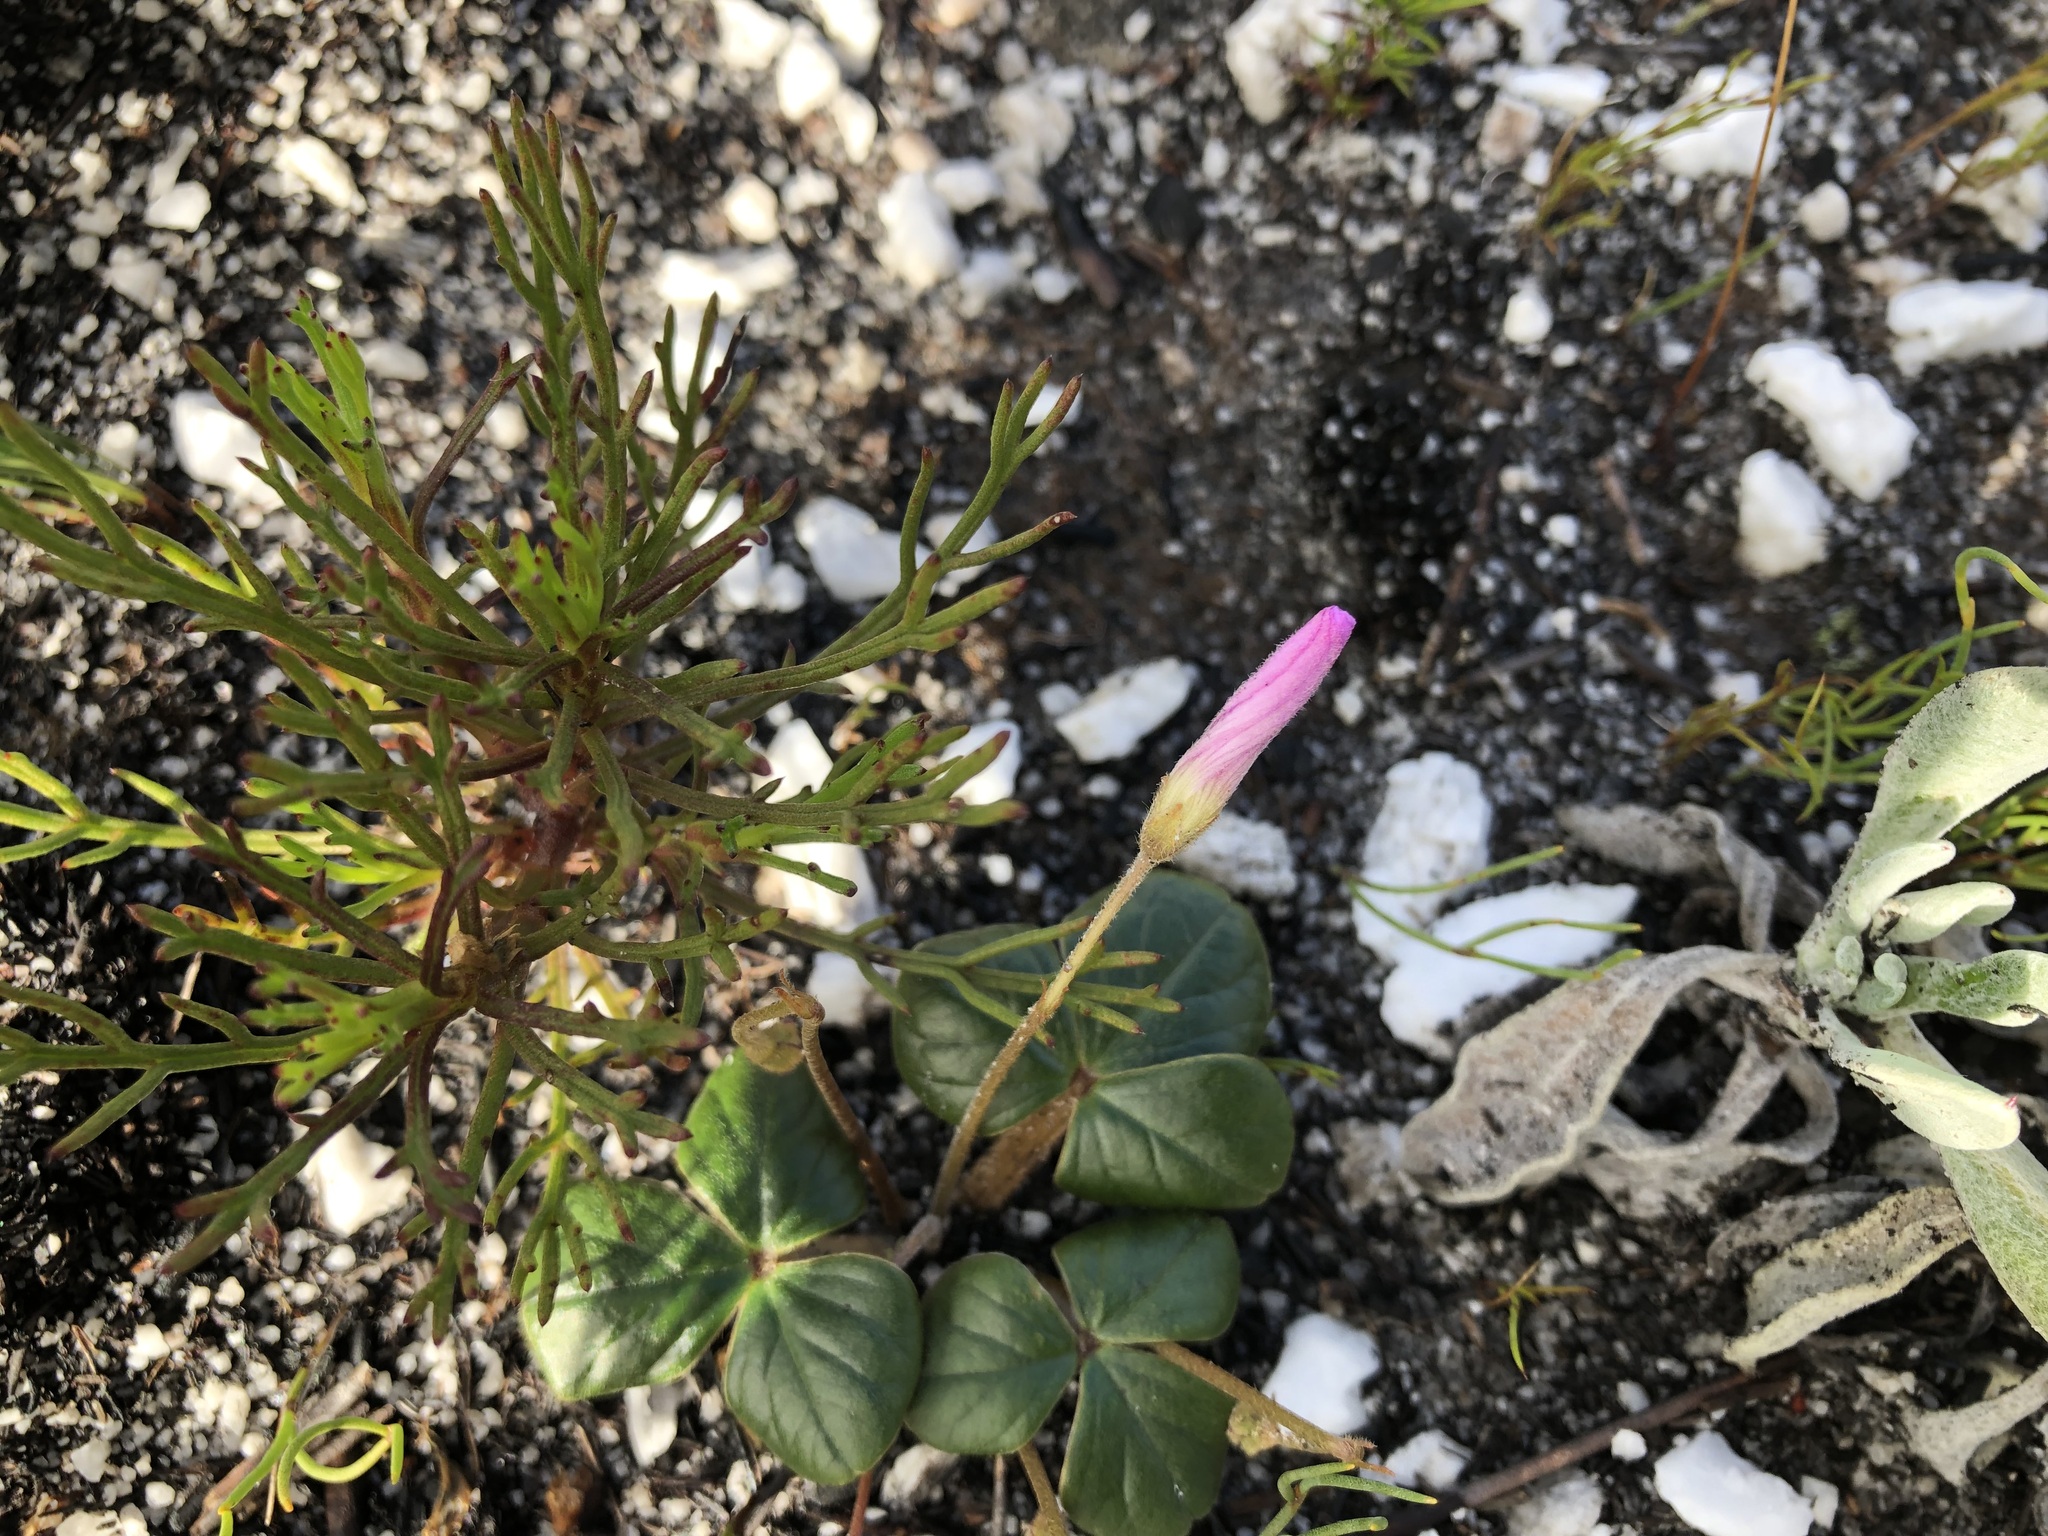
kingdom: Plantae
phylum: Tracheophyta
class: Magnoliopsida
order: Oxalidales
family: Oxalidaceae
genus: Oxalis
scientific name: Oxalis truncatula
